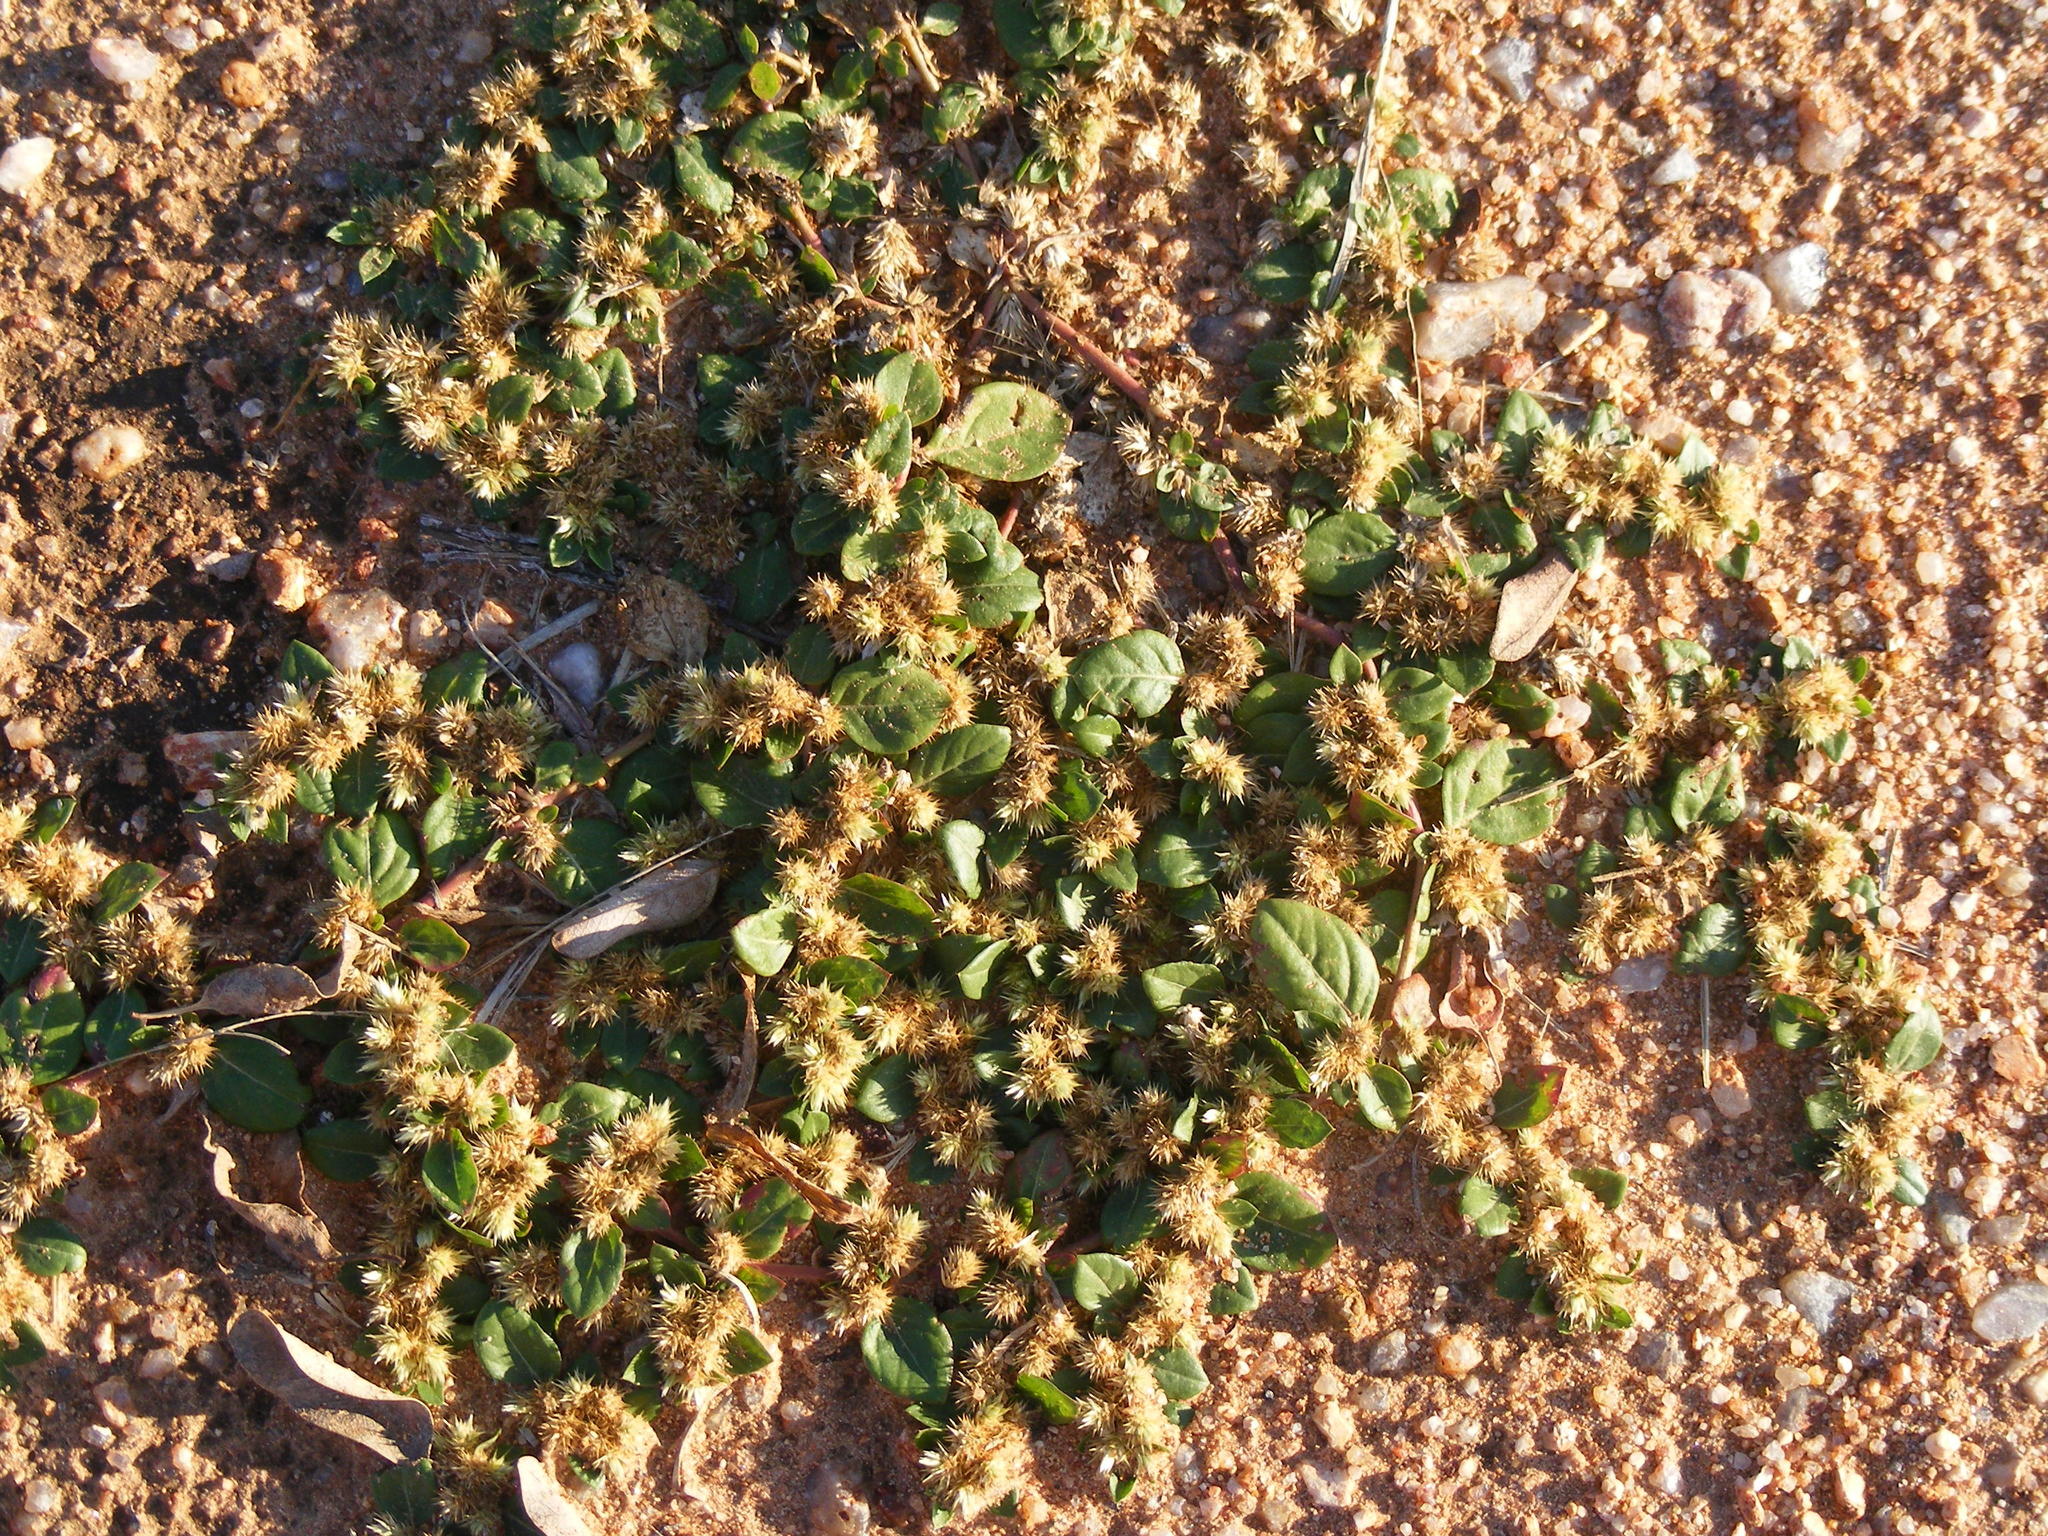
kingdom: Plantae
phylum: Tracheophyta
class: Magnoliopsida
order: Caryophyllales
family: Amaranthaceae
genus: Alternanthera
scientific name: Alternanthera pungens
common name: Khakiweed
